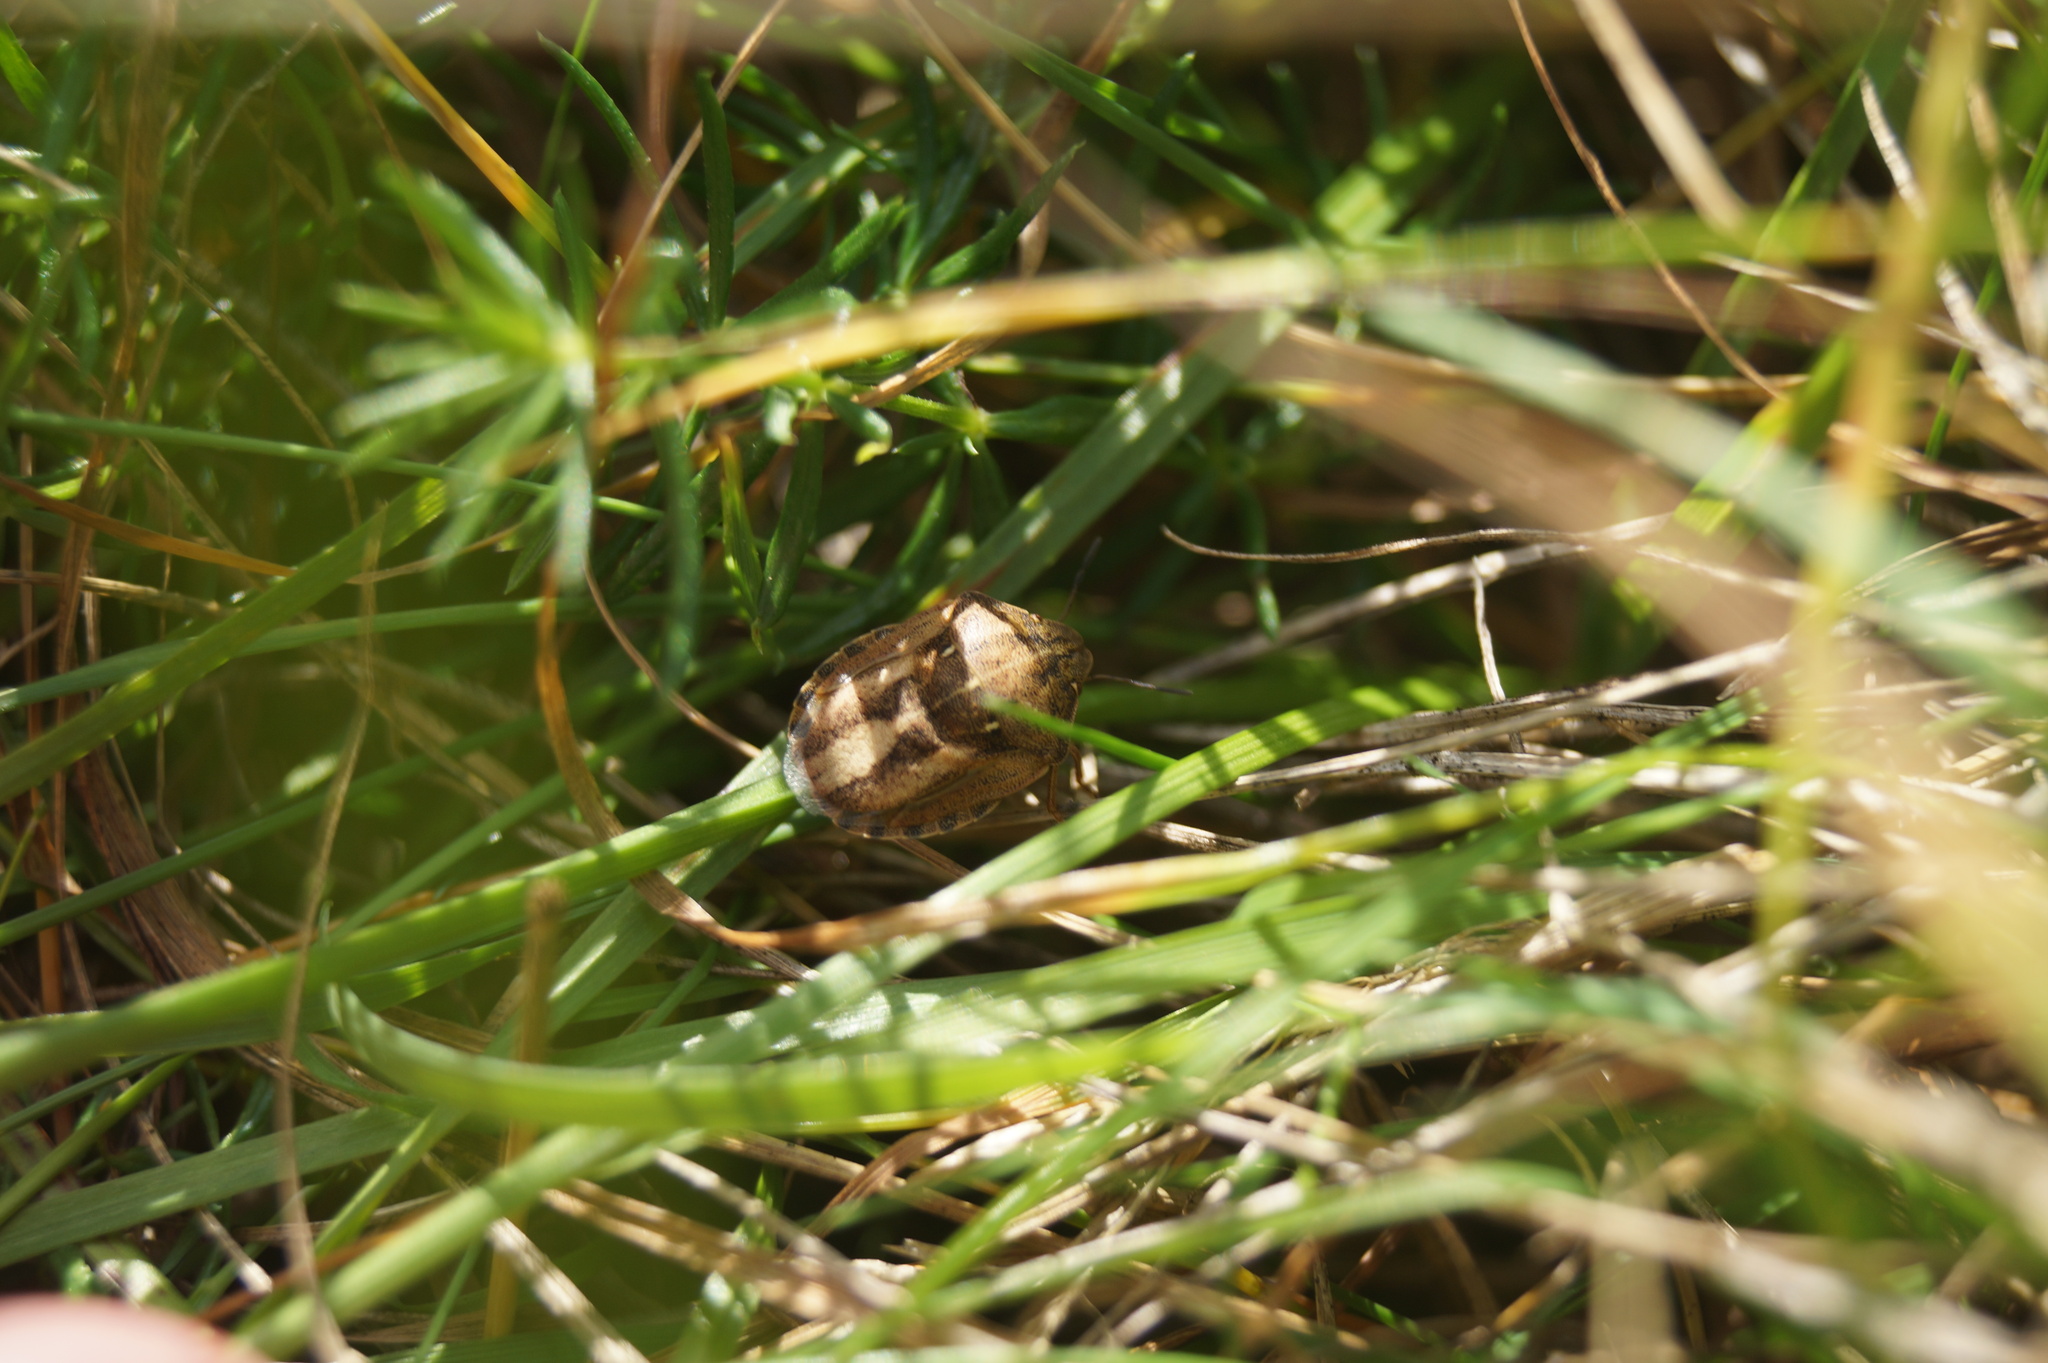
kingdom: Animalia
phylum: Arthropoda
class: Insecta
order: Hemiptera
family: Scutelleridae
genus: Eurygaster
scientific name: Eurygaster testudinaria
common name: Tortoise bug
